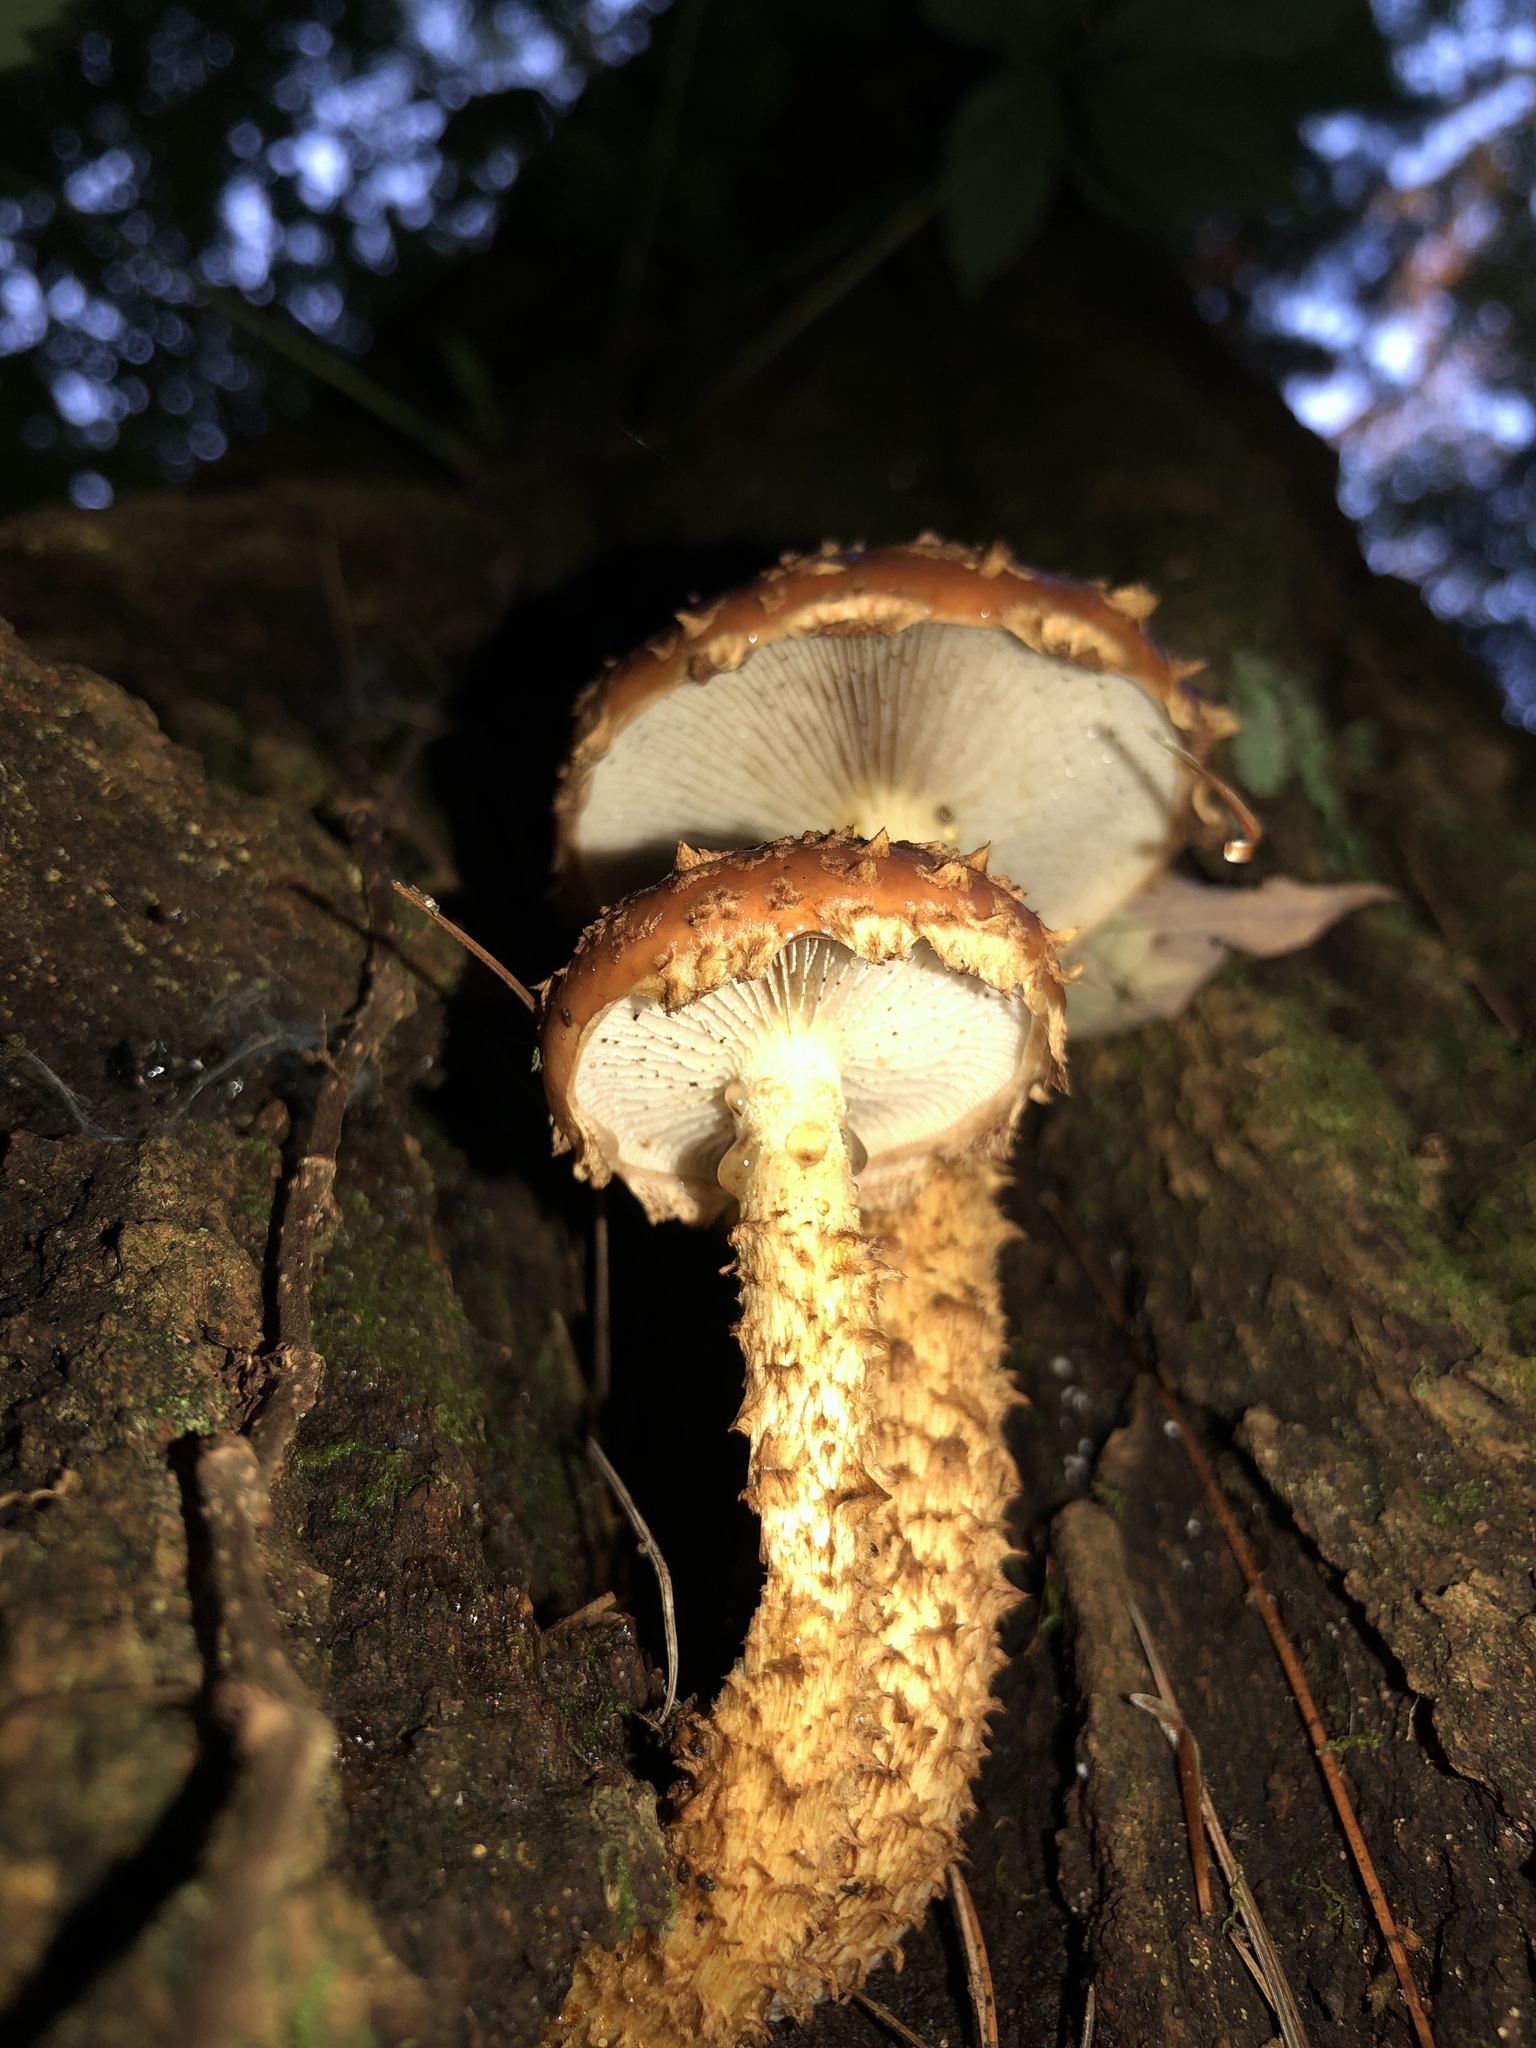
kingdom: Fungi
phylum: Basidiomycota
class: Agaricomycetes
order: Agaricales
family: Tubariaceae
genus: Hemistropharia
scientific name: Hemistropharia albocrenulata
